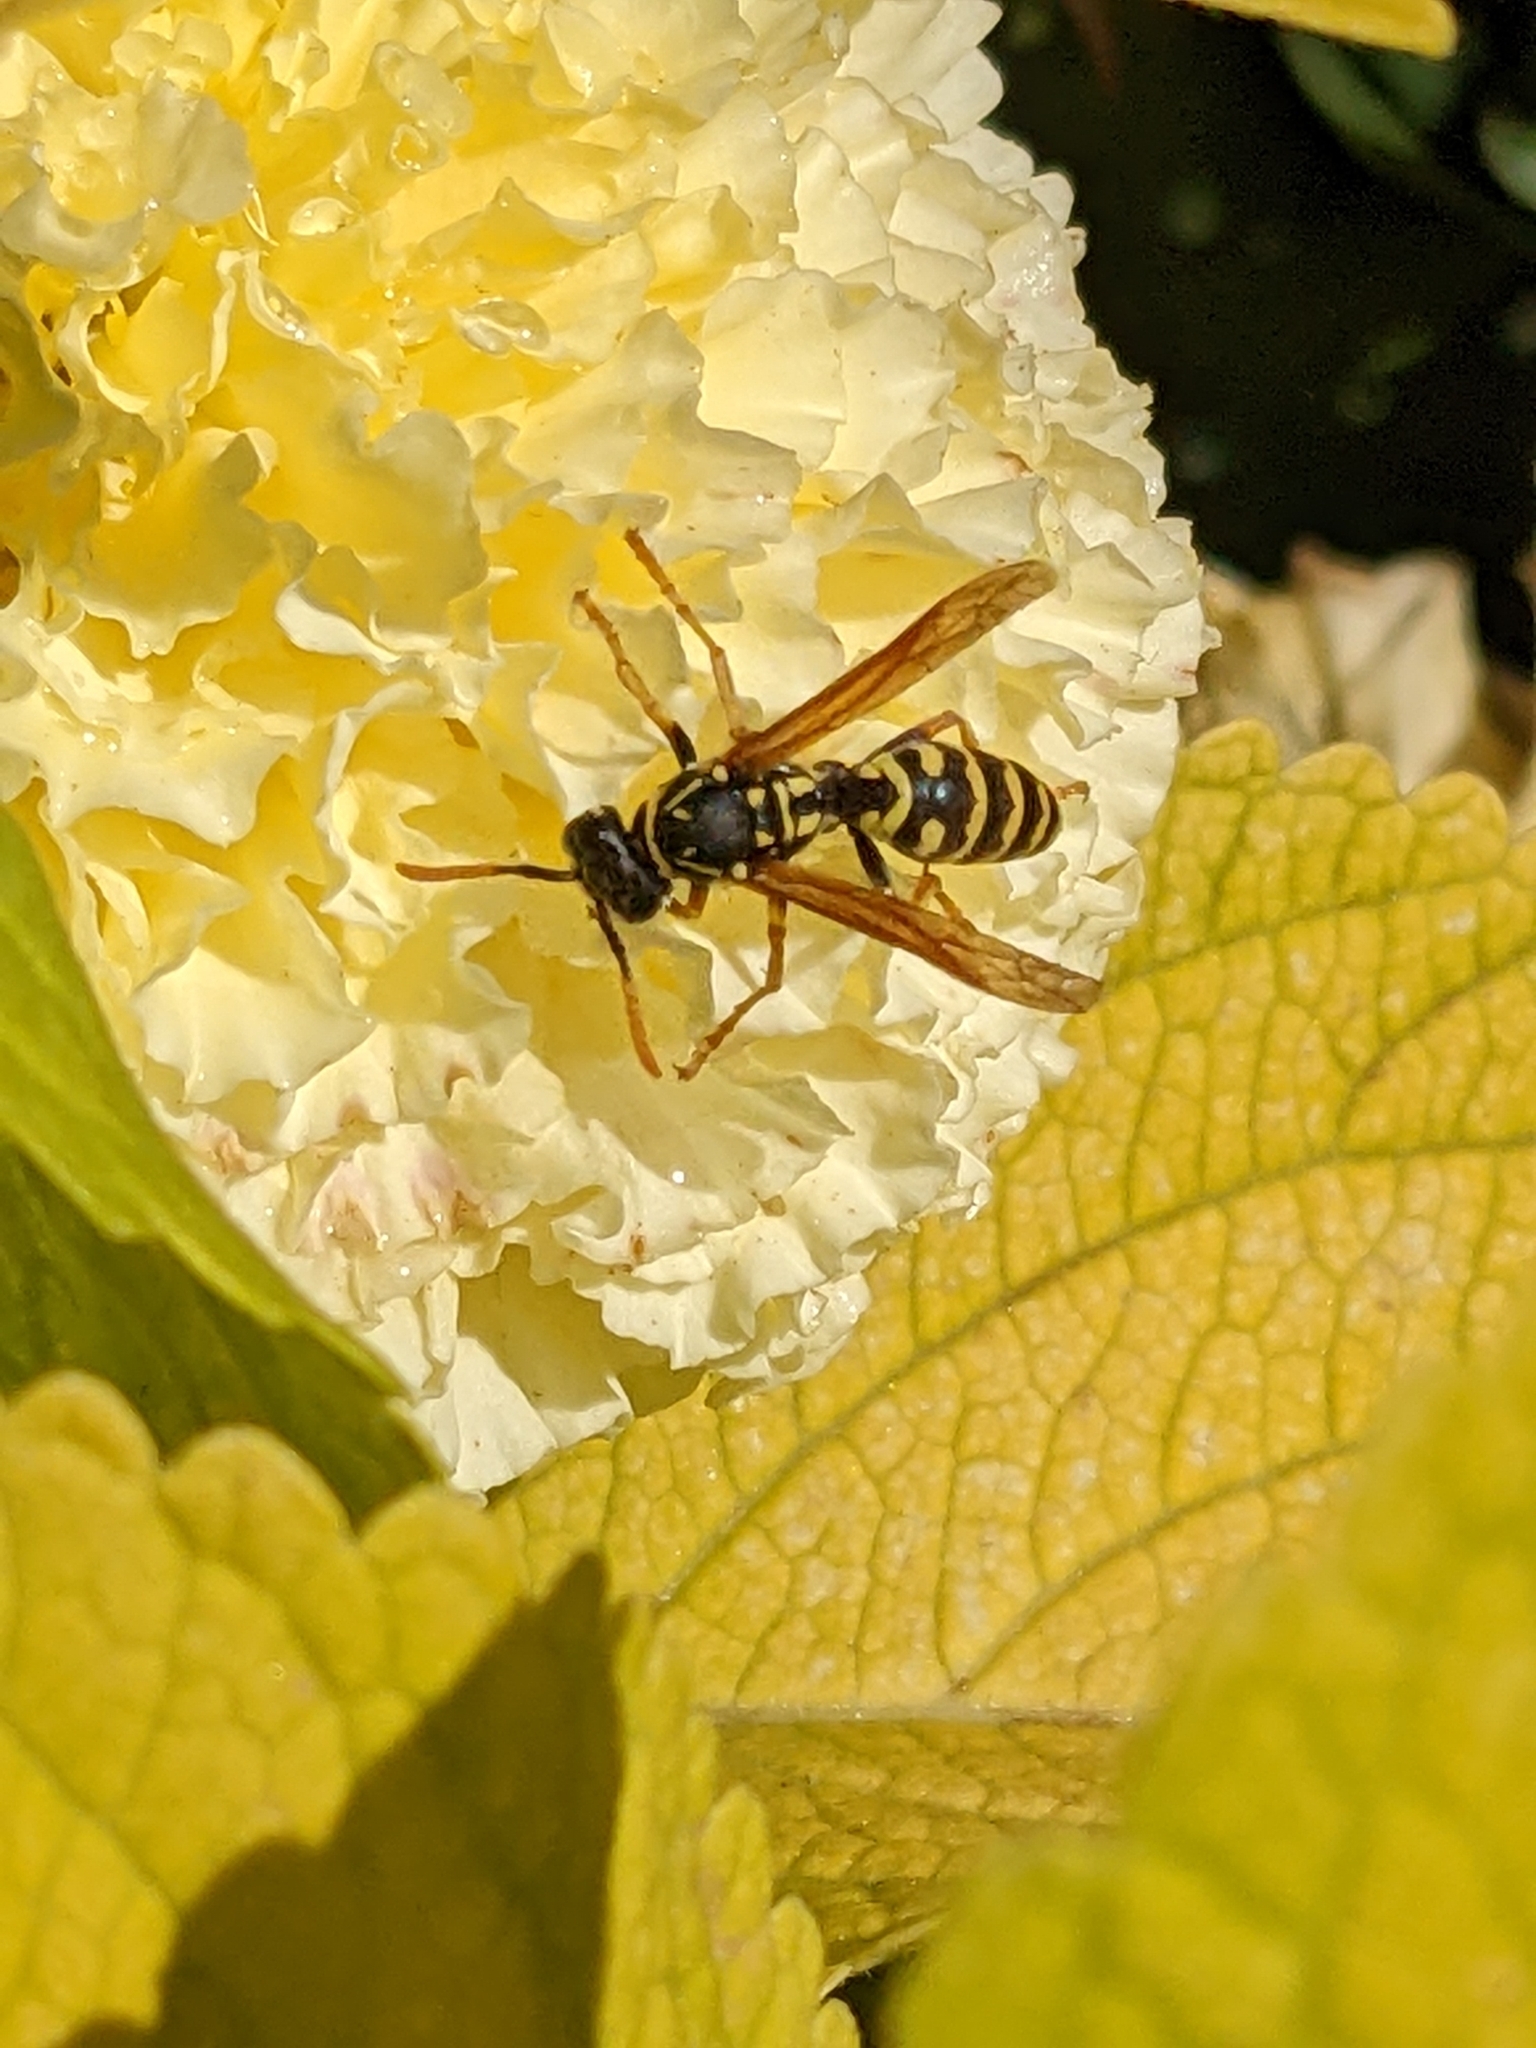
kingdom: Animalia
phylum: Arthropoda
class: Insecta
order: Hymenoptera
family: Eumenidae
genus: Polistes
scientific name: Polistes dominula
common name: Paper wasp
